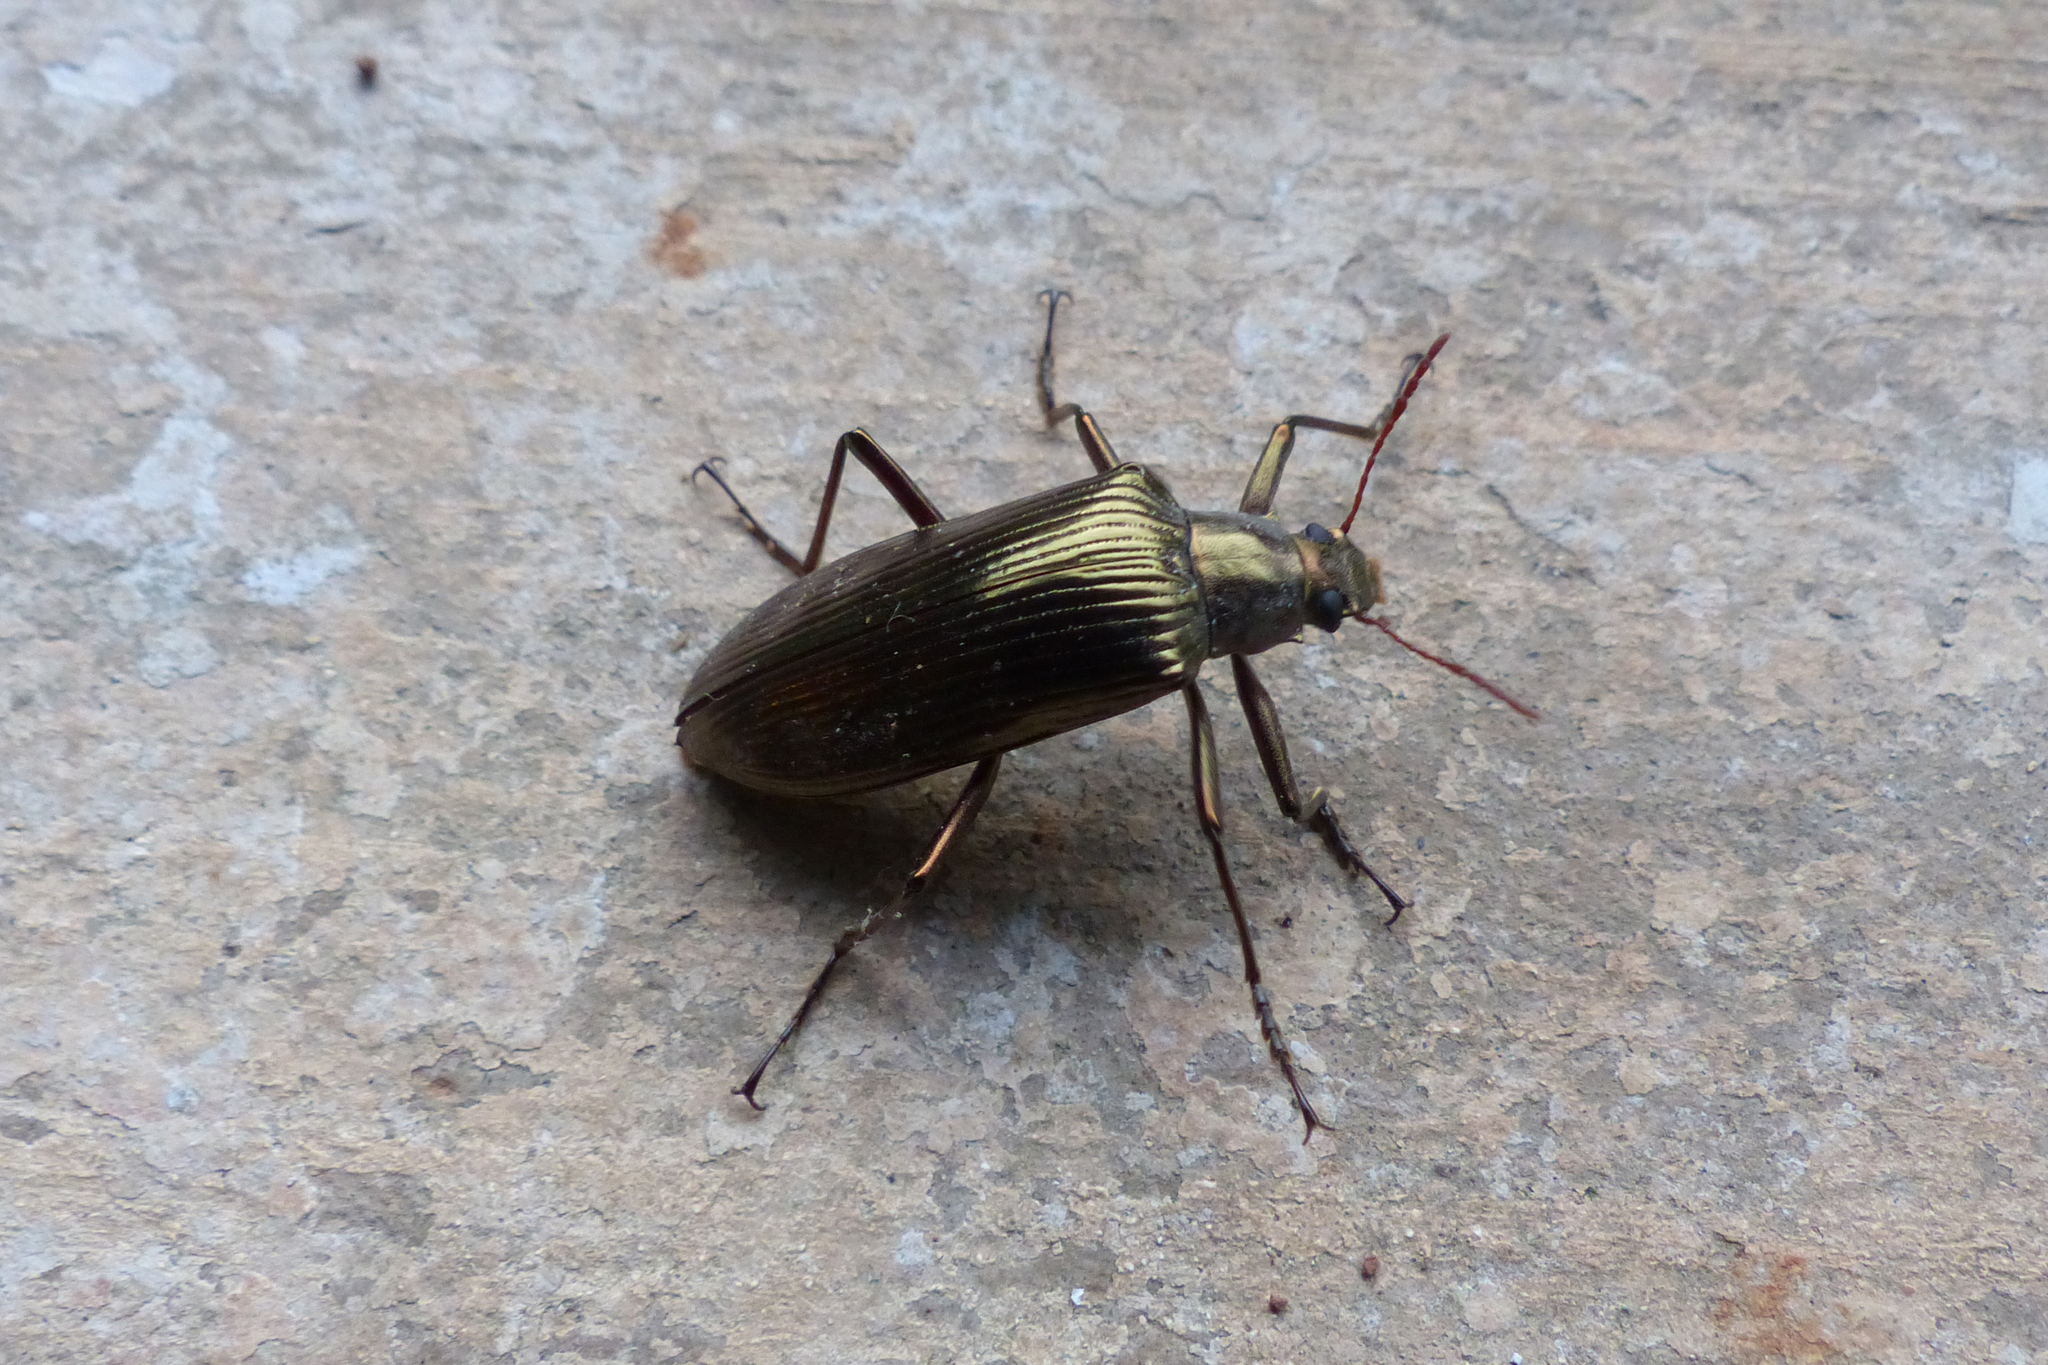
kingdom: Animalia
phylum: Arthropoda
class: Insecta
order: Coleoptera
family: Tenebrionidae
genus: Gebienocamaria
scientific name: Gebienocamaria
